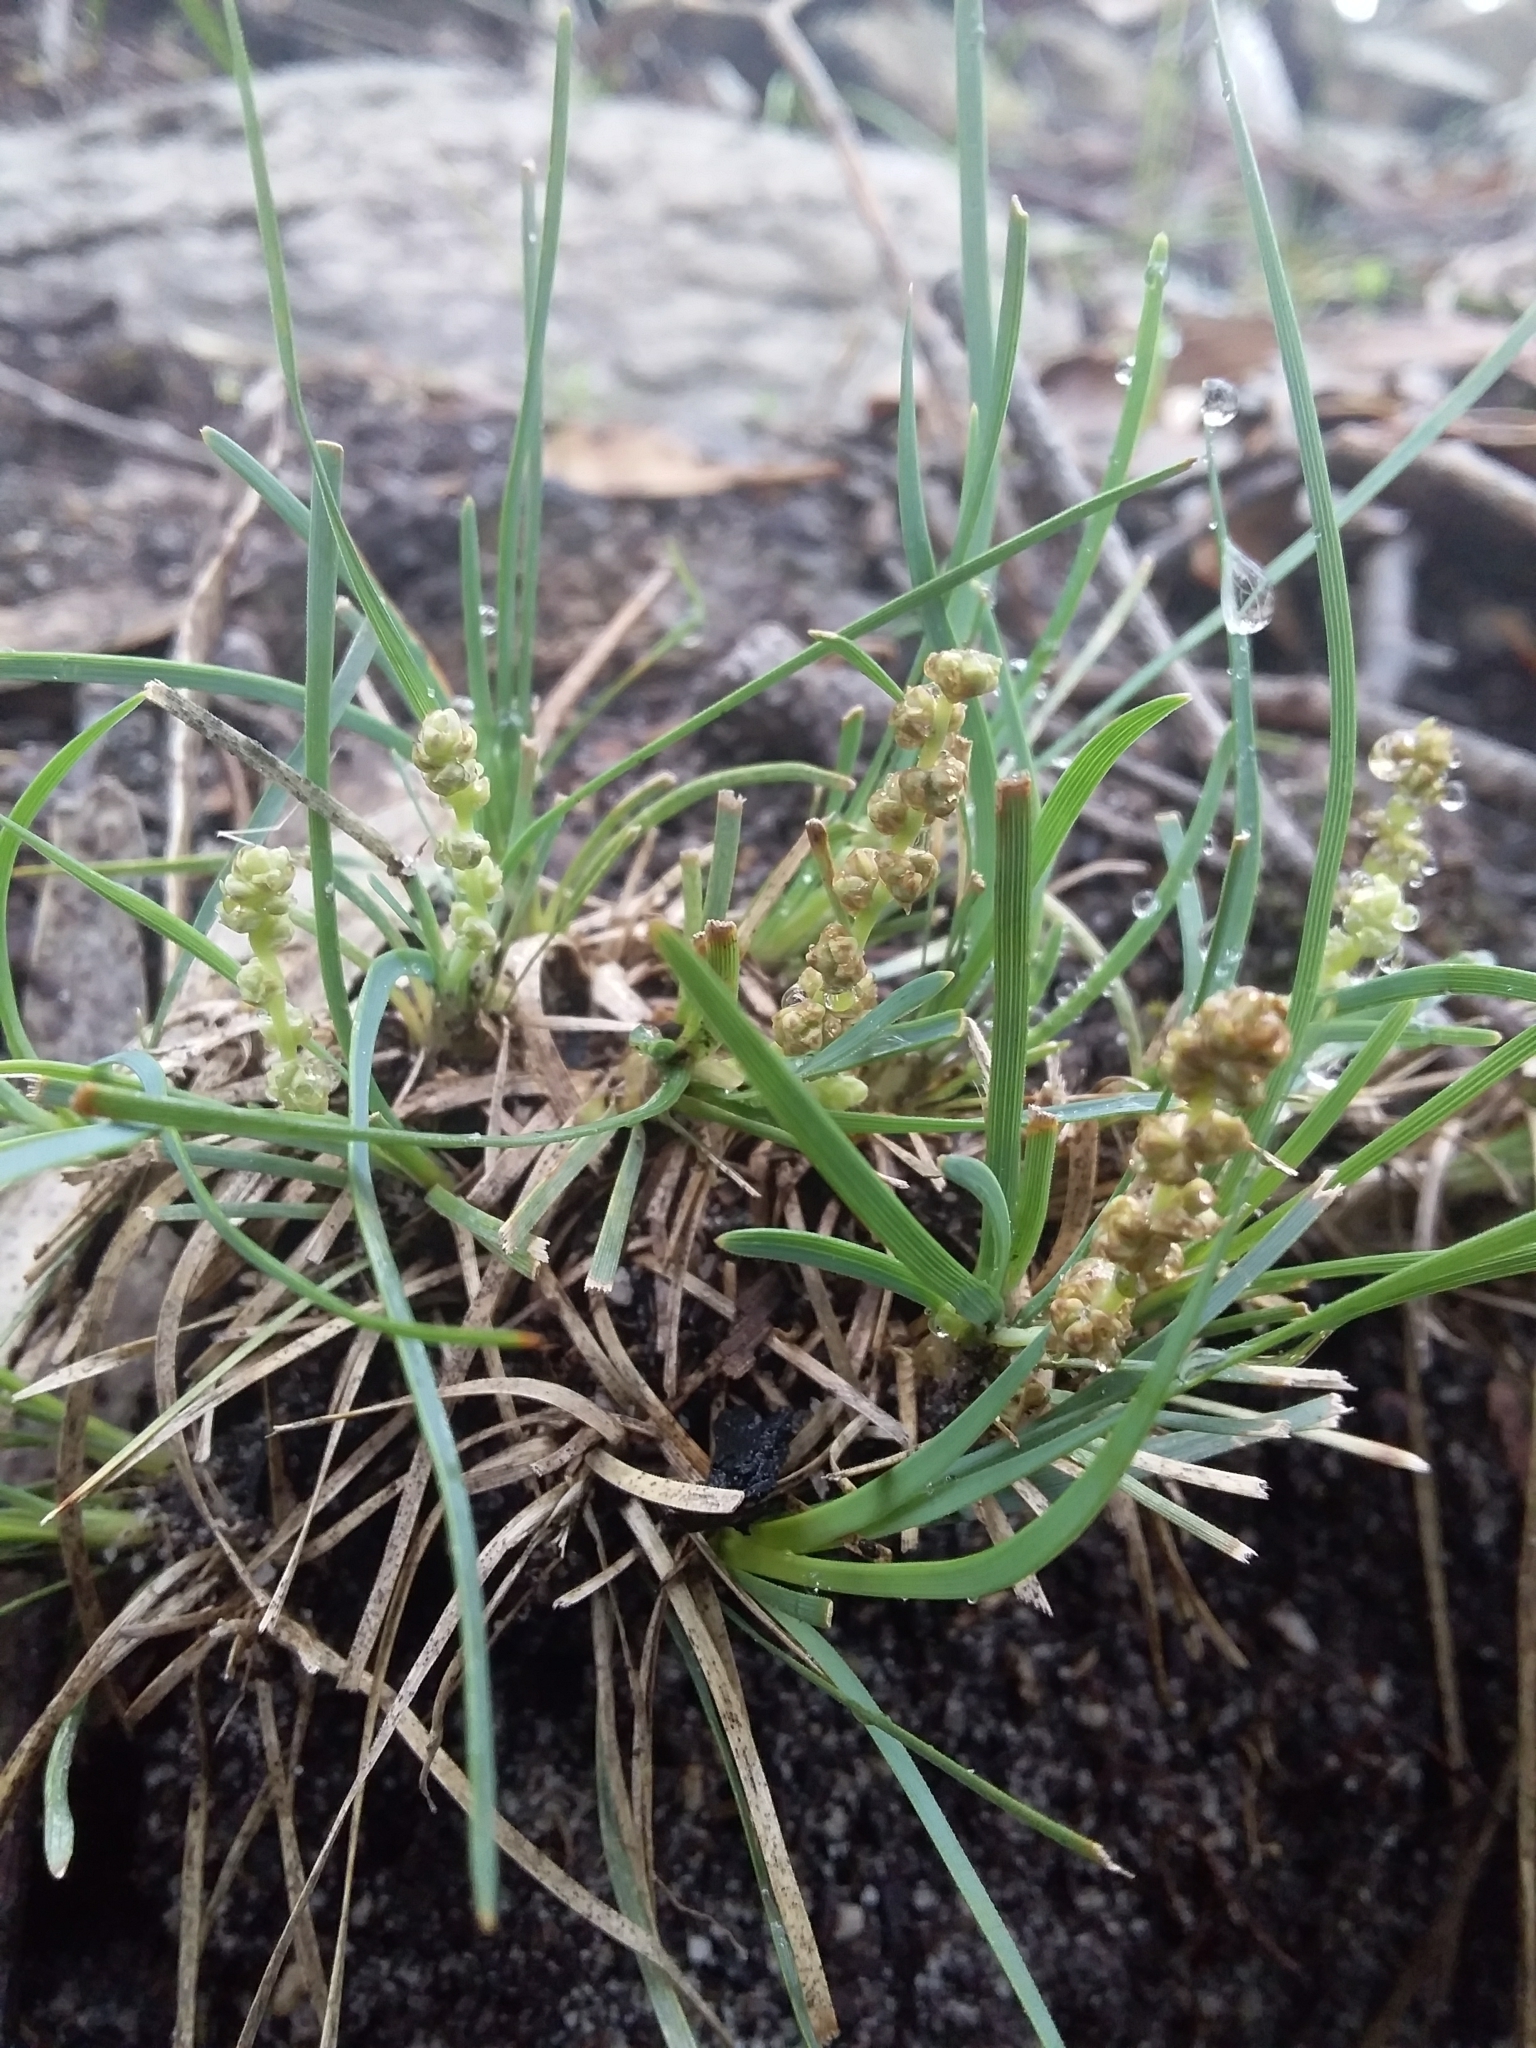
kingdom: Plantae
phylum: Tracheophyta
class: Liliopsida
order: Asparagales
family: Asparagaceae
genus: Lomandra
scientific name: Lomandra nana
